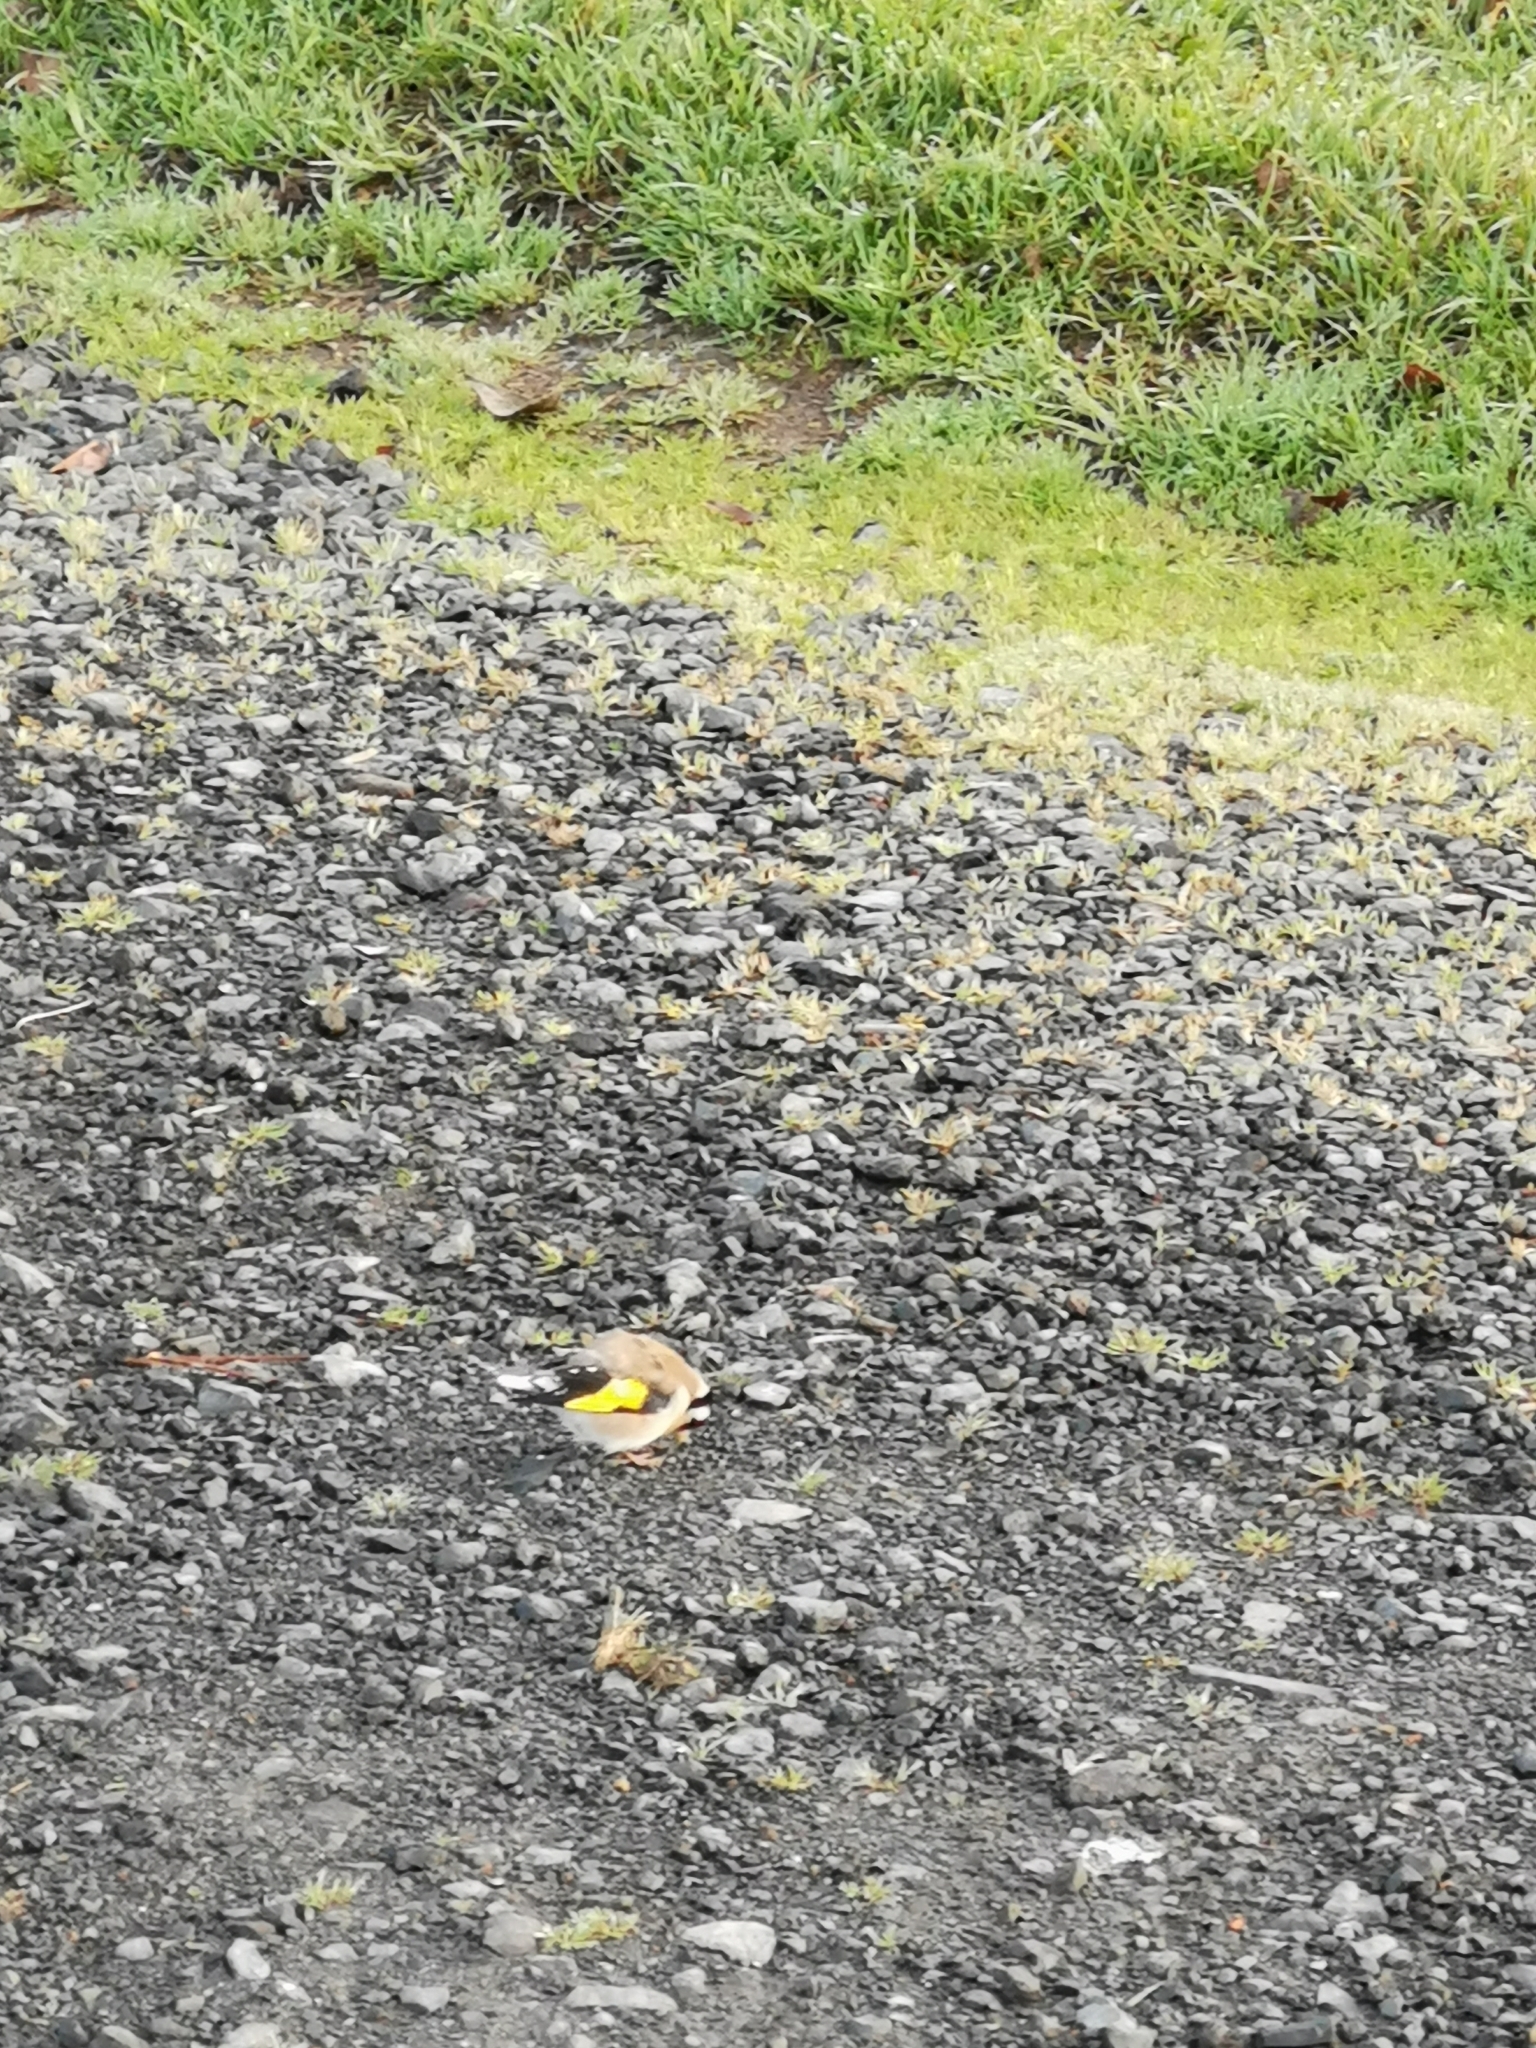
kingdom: Animalia
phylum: Chordata
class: Aves
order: Passeriformes
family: Fringillidae
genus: Carduelis
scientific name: Carduelis carduelis
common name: European goldfinch
